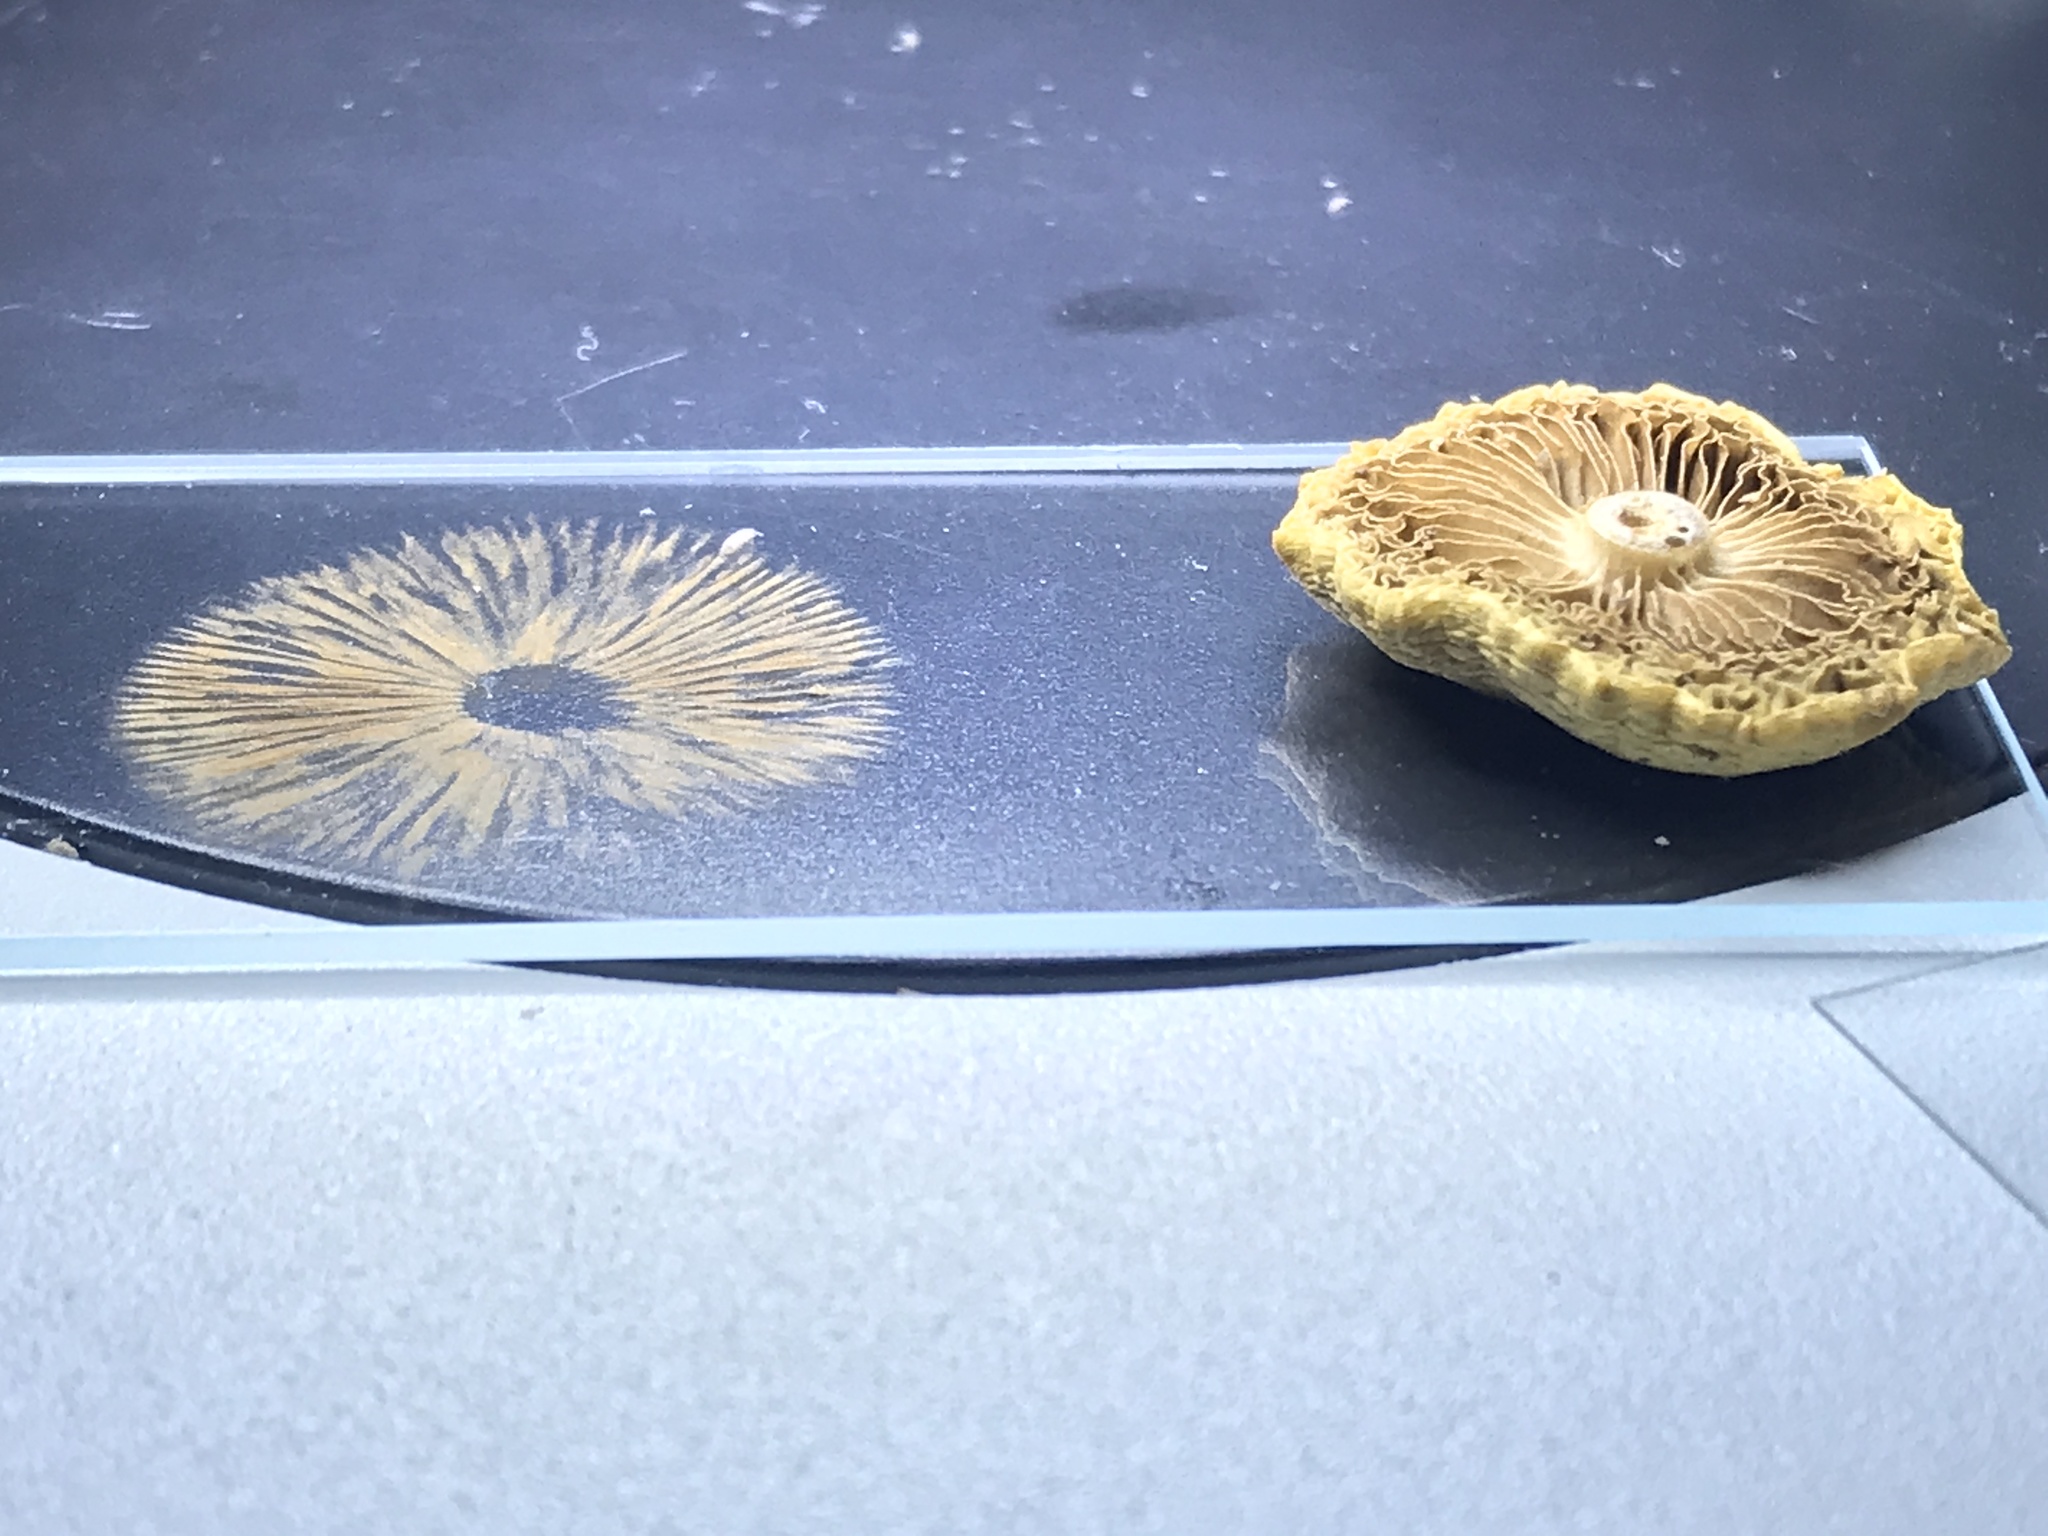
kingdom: Fungi
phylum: Basidiomycota
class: Agaricomycetes
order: Agaricales
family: Strophariaceae
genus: Agrocybe
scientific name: Agrocybe pediades
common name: Common fieldcap
